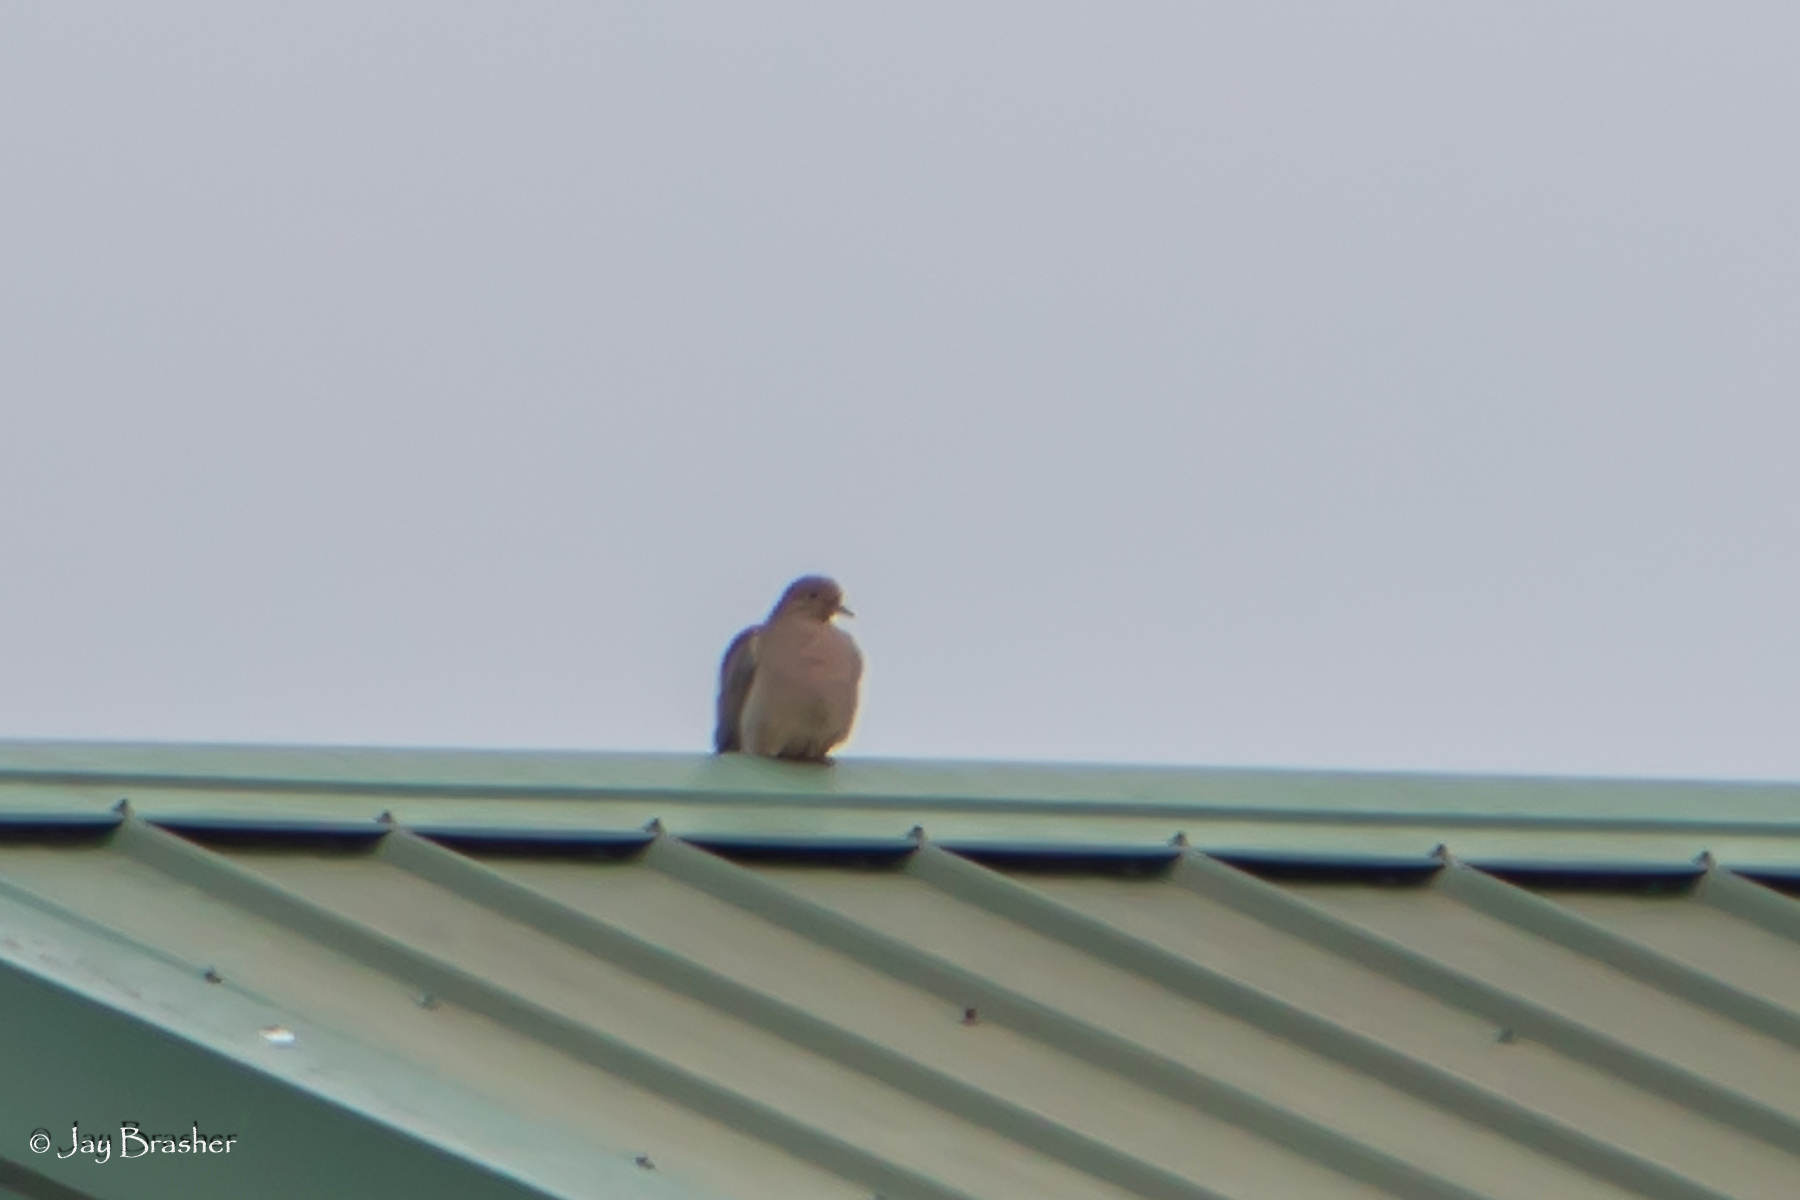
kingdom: Animalia
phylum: Chordata
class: Aves
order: Columbiformes
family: Columbidae
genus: Zenaida
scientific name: Zenaida macroura
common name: Mourning dove
